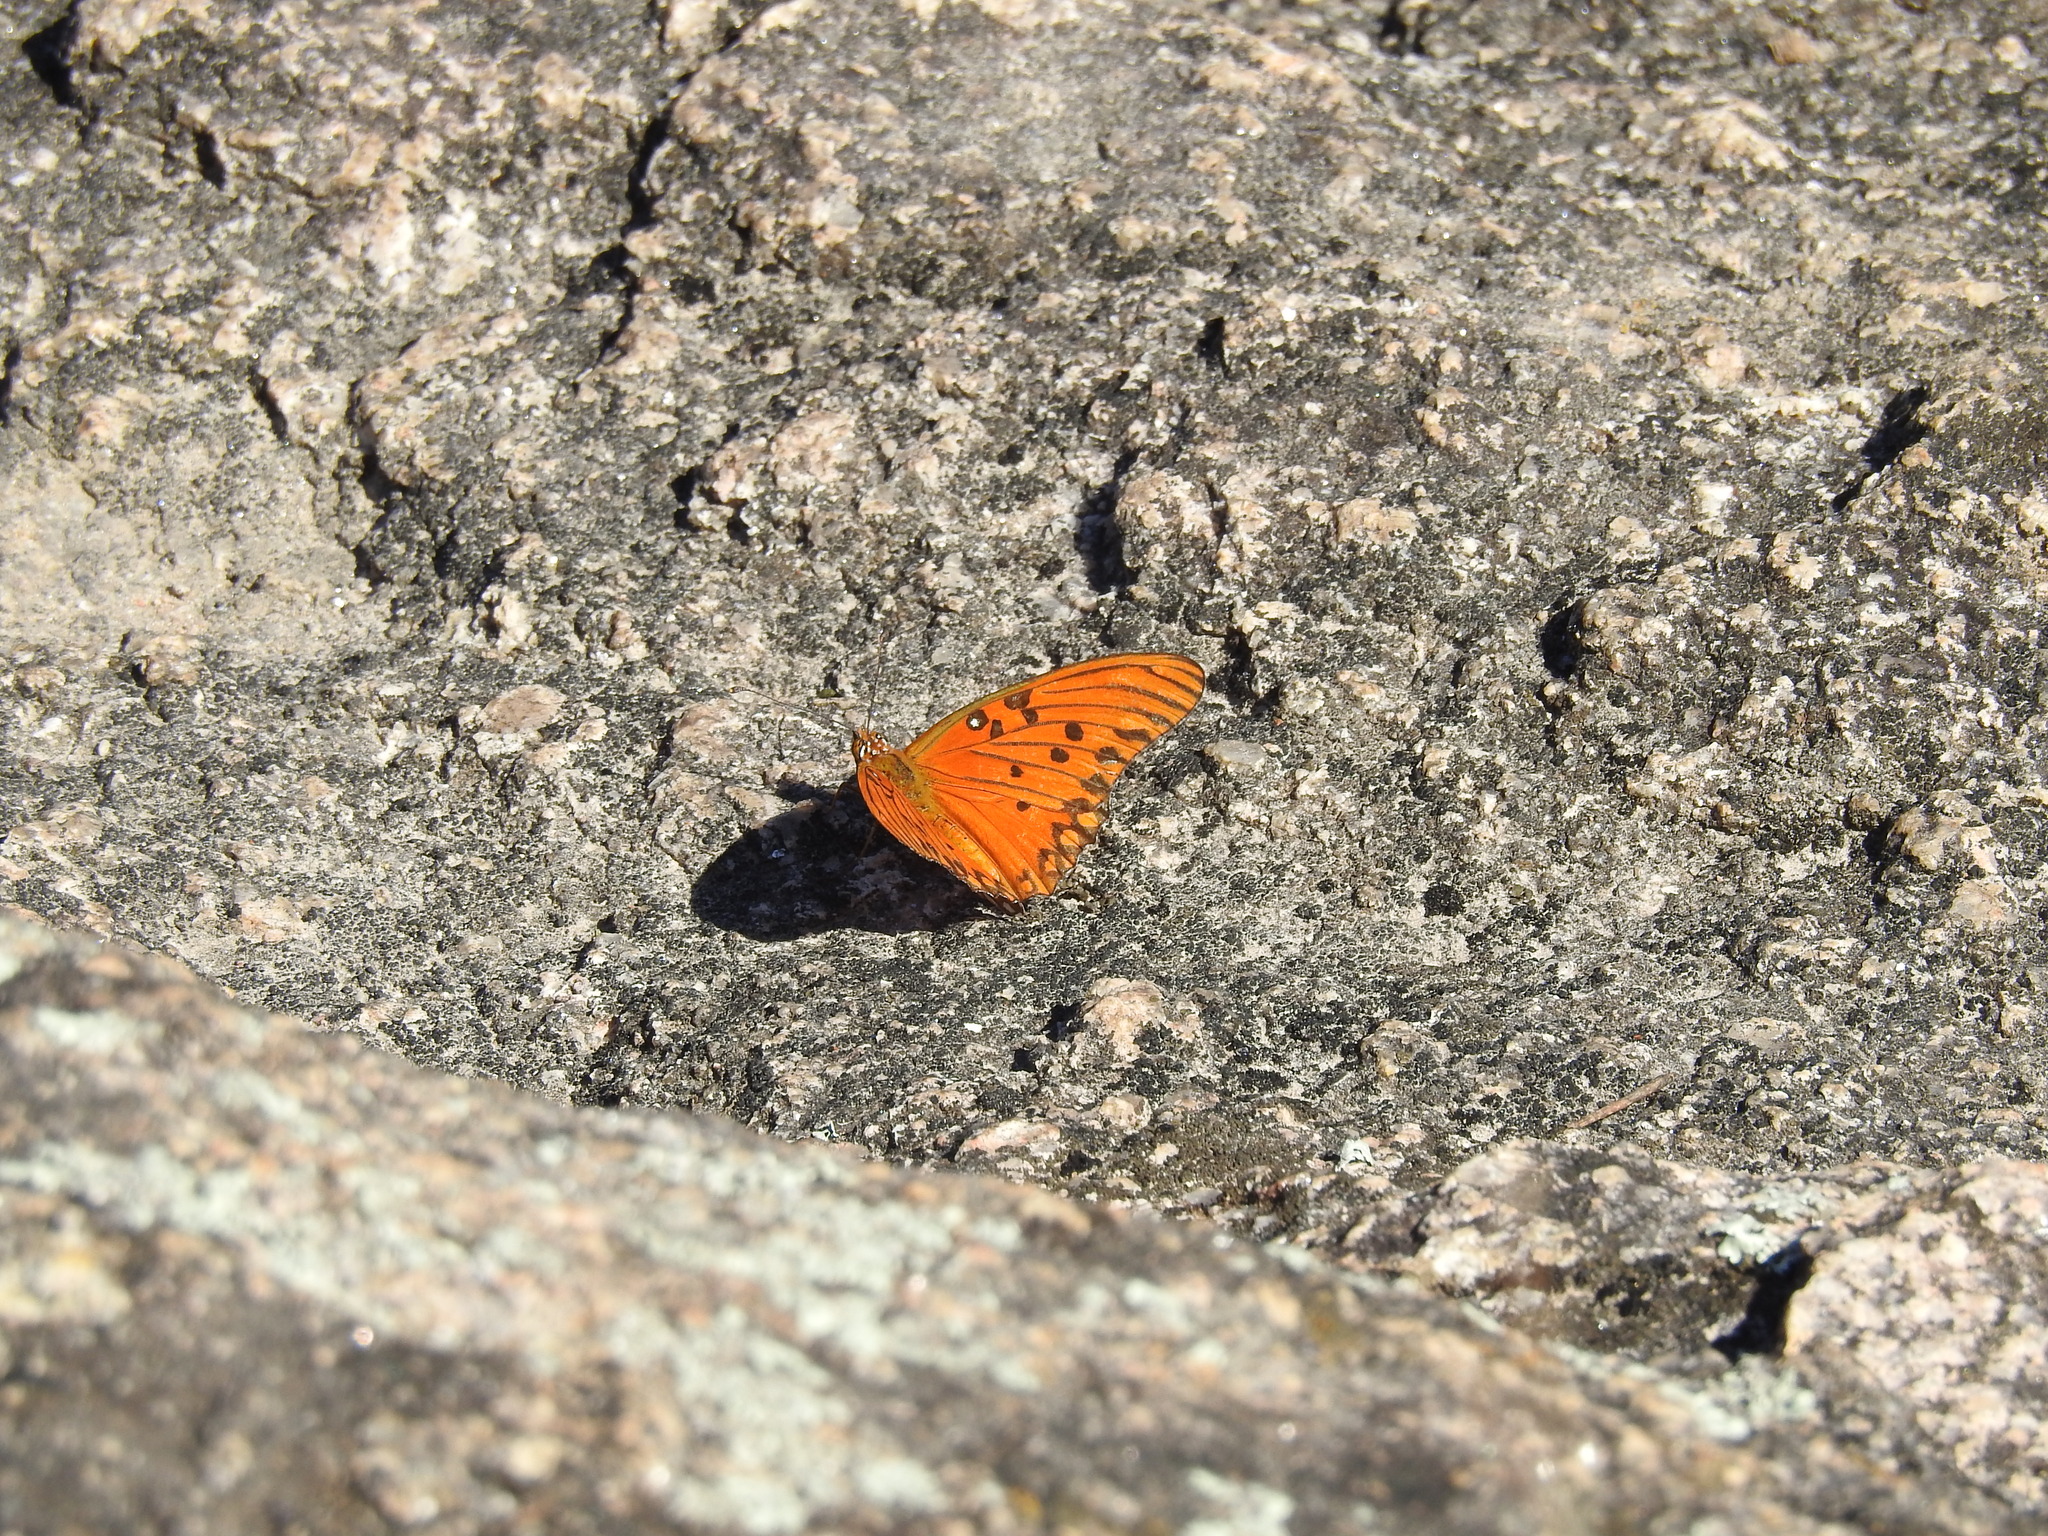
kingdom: Animalia
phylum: Arthropoda
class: Insecta
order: Lepidoptera
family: Nymphalidae
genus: Dione
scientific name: Dione vanillae
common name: Gulf fritillary
